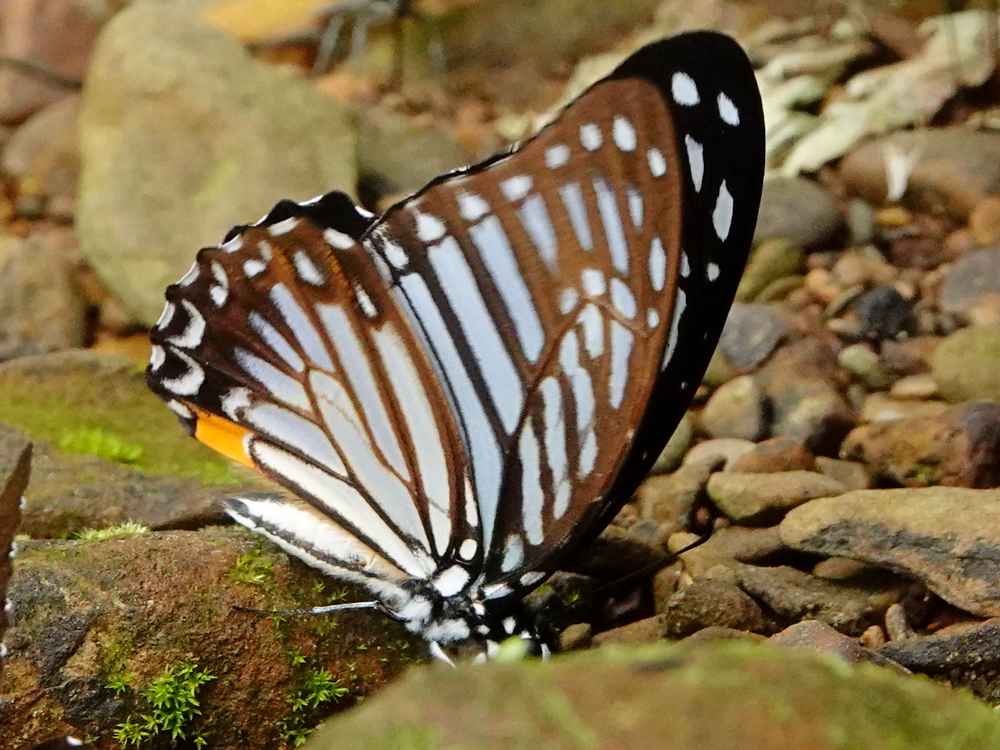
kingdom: Animalia
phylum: Arthropoda
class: Insecta
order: Lepidoptera
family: Papilionidae
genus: Graphium
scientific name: Graphium xenocles
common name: Great zebra
